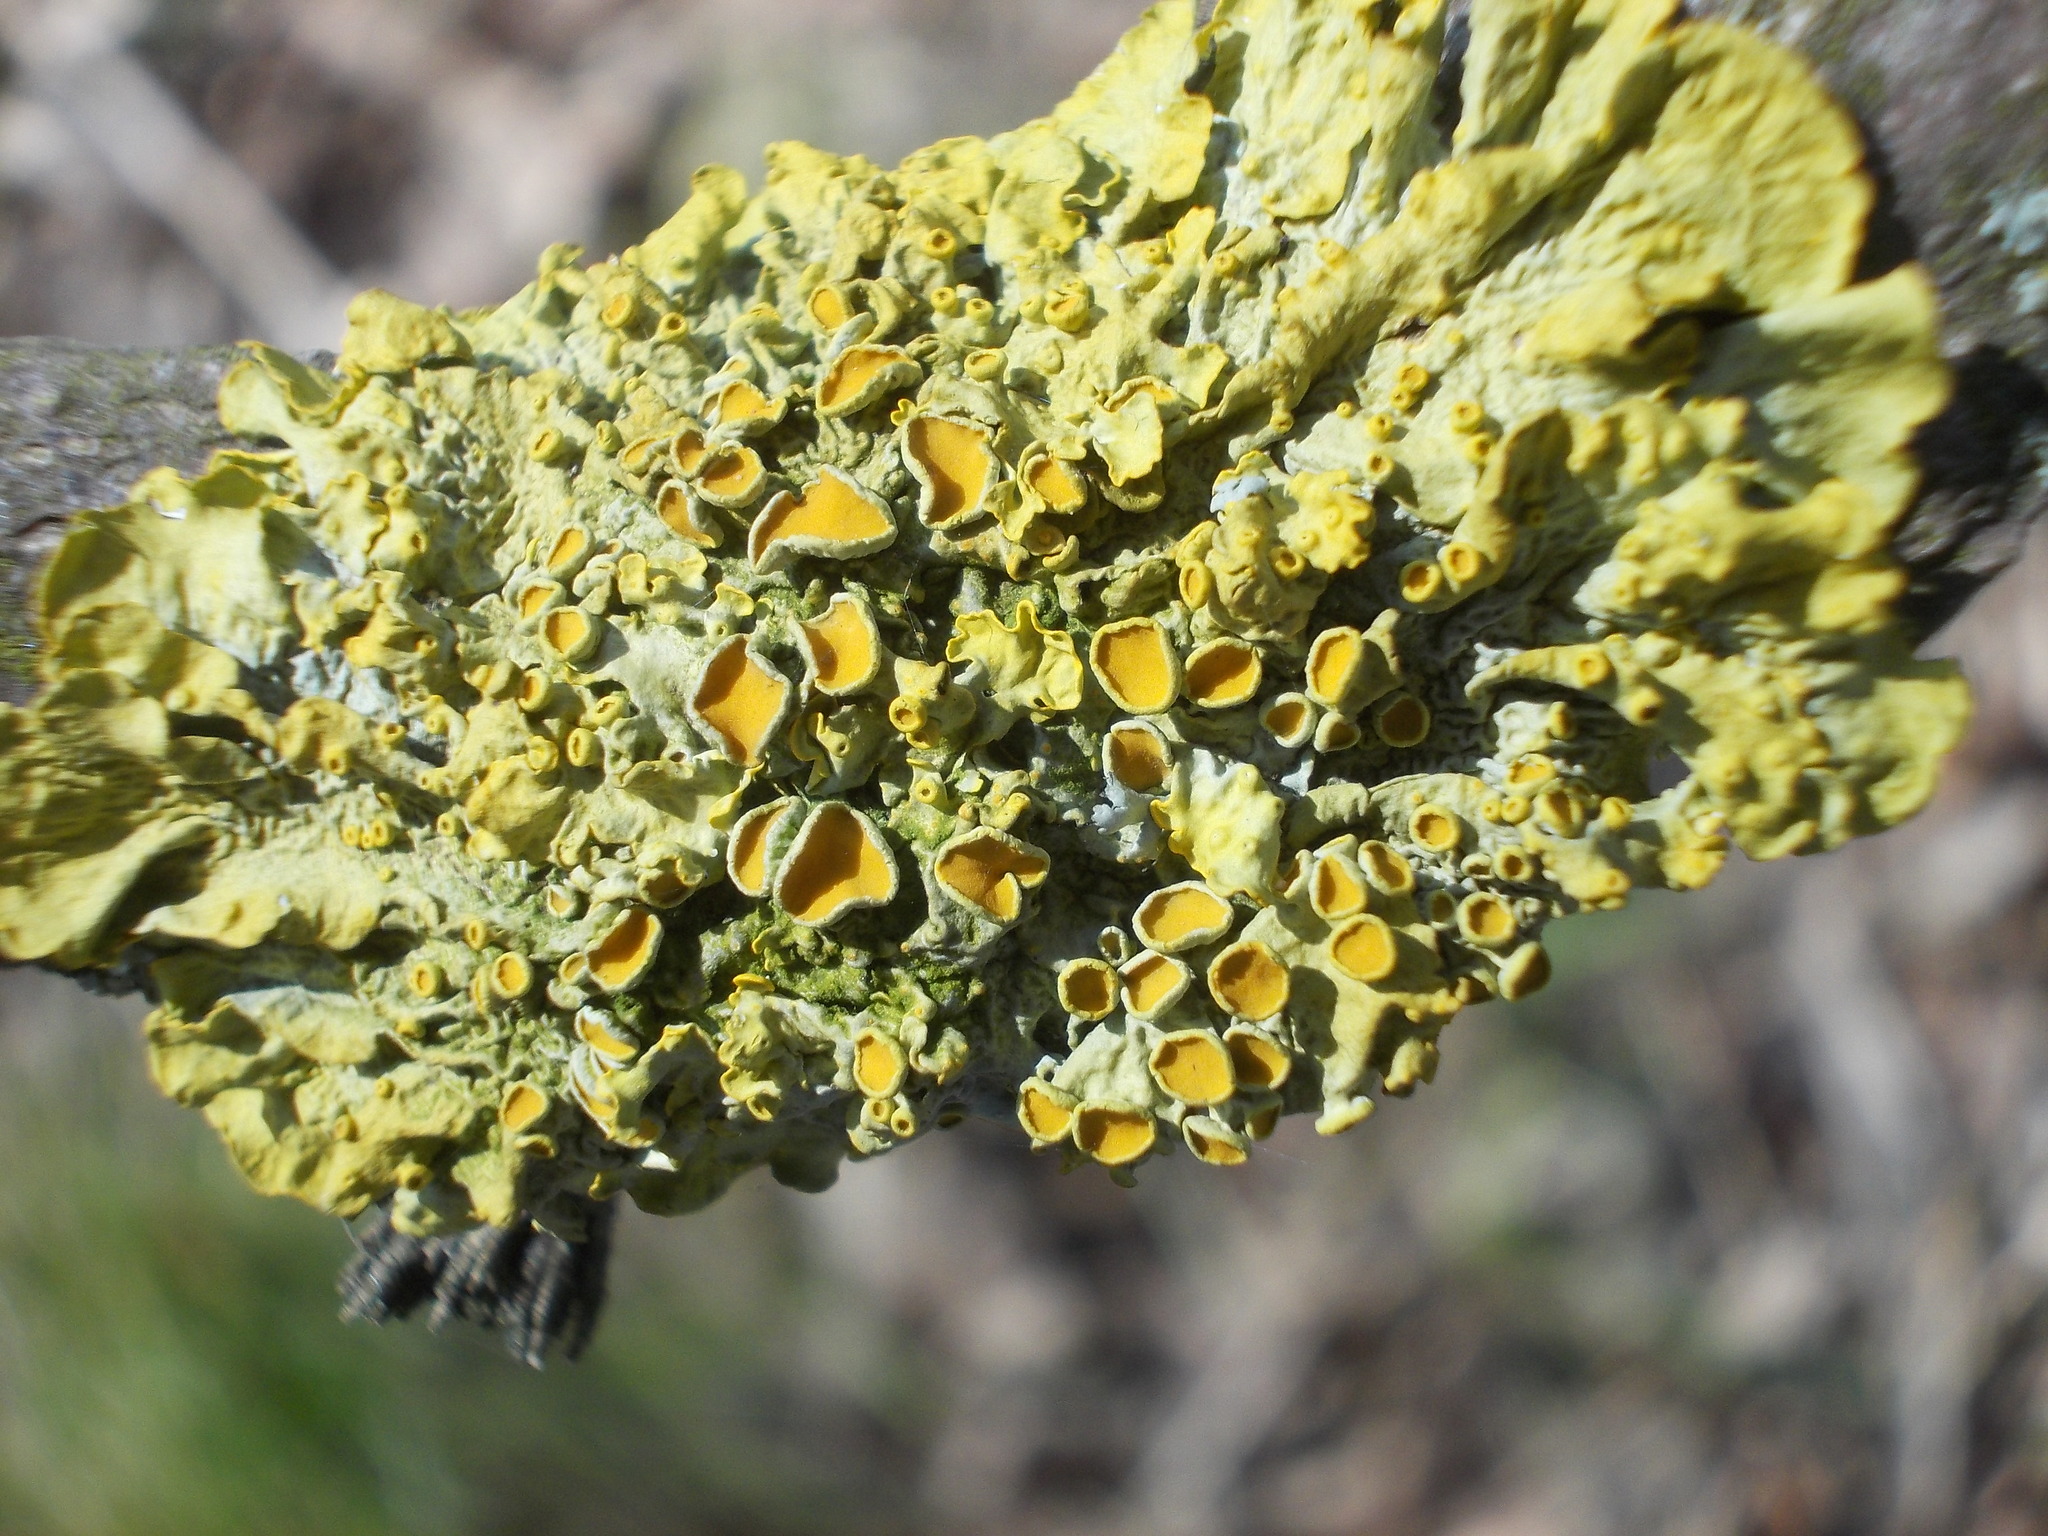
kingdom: Fungi
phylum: Ascomycota
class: Lecanoromycetes
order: Teloschistales
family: Teloschistaceae
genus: Xanthoria
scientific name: Xanthoria parietina
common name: Common orange lichen
